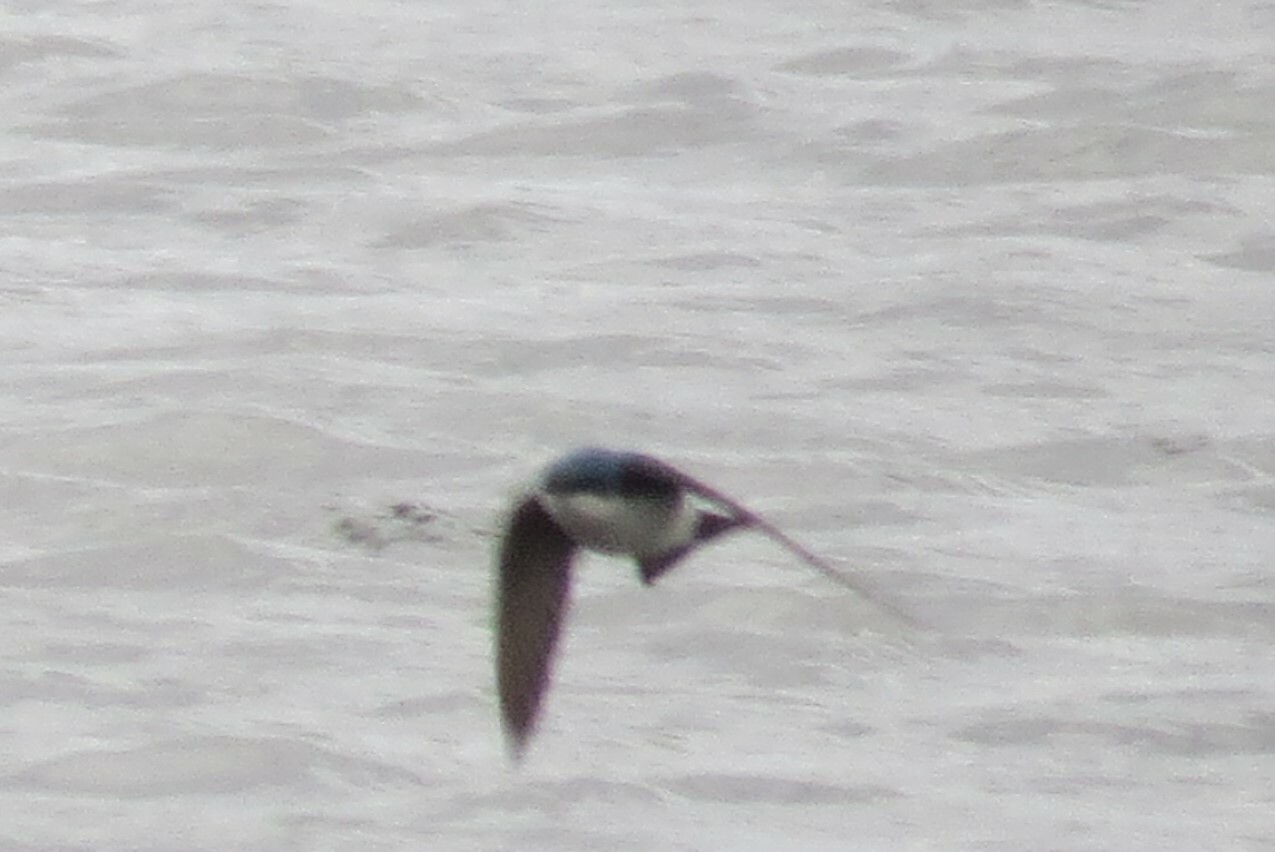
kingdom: Animalia
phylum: Chordata
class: Aves
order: Passeriformes
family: Hirundinidae
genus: Tachycineta
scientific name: Tachycineta bicolor
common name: Tree swallow
